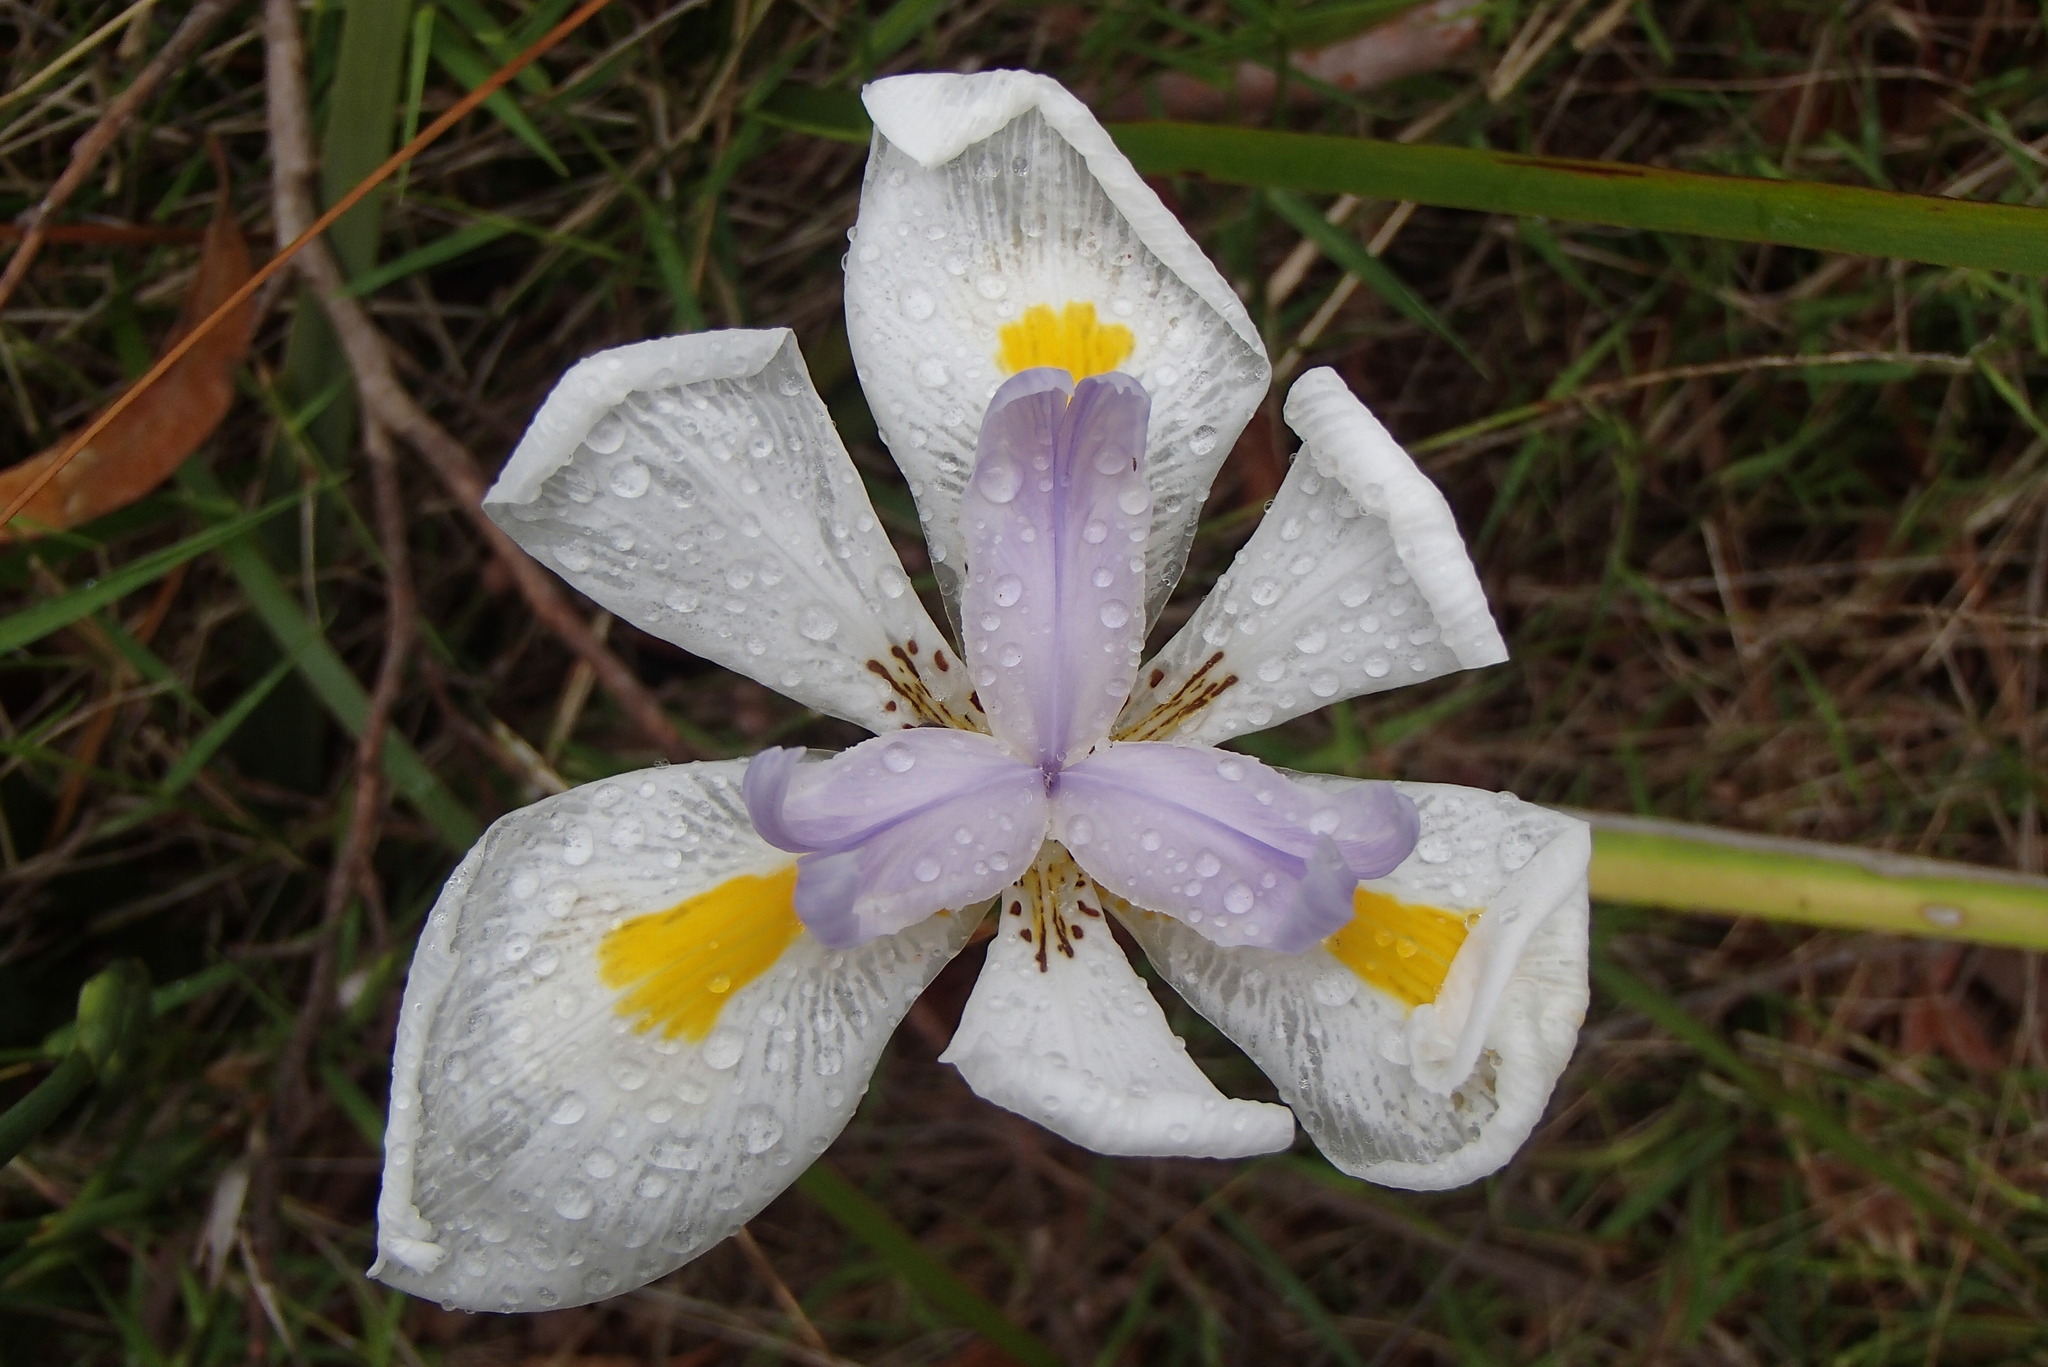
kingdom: Plantae
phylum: Tracheophyta
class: Liliopsida
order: Asparagales
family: Iridaceae
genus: Dietes
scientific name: Dietes grandiflora
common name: Wild iris
